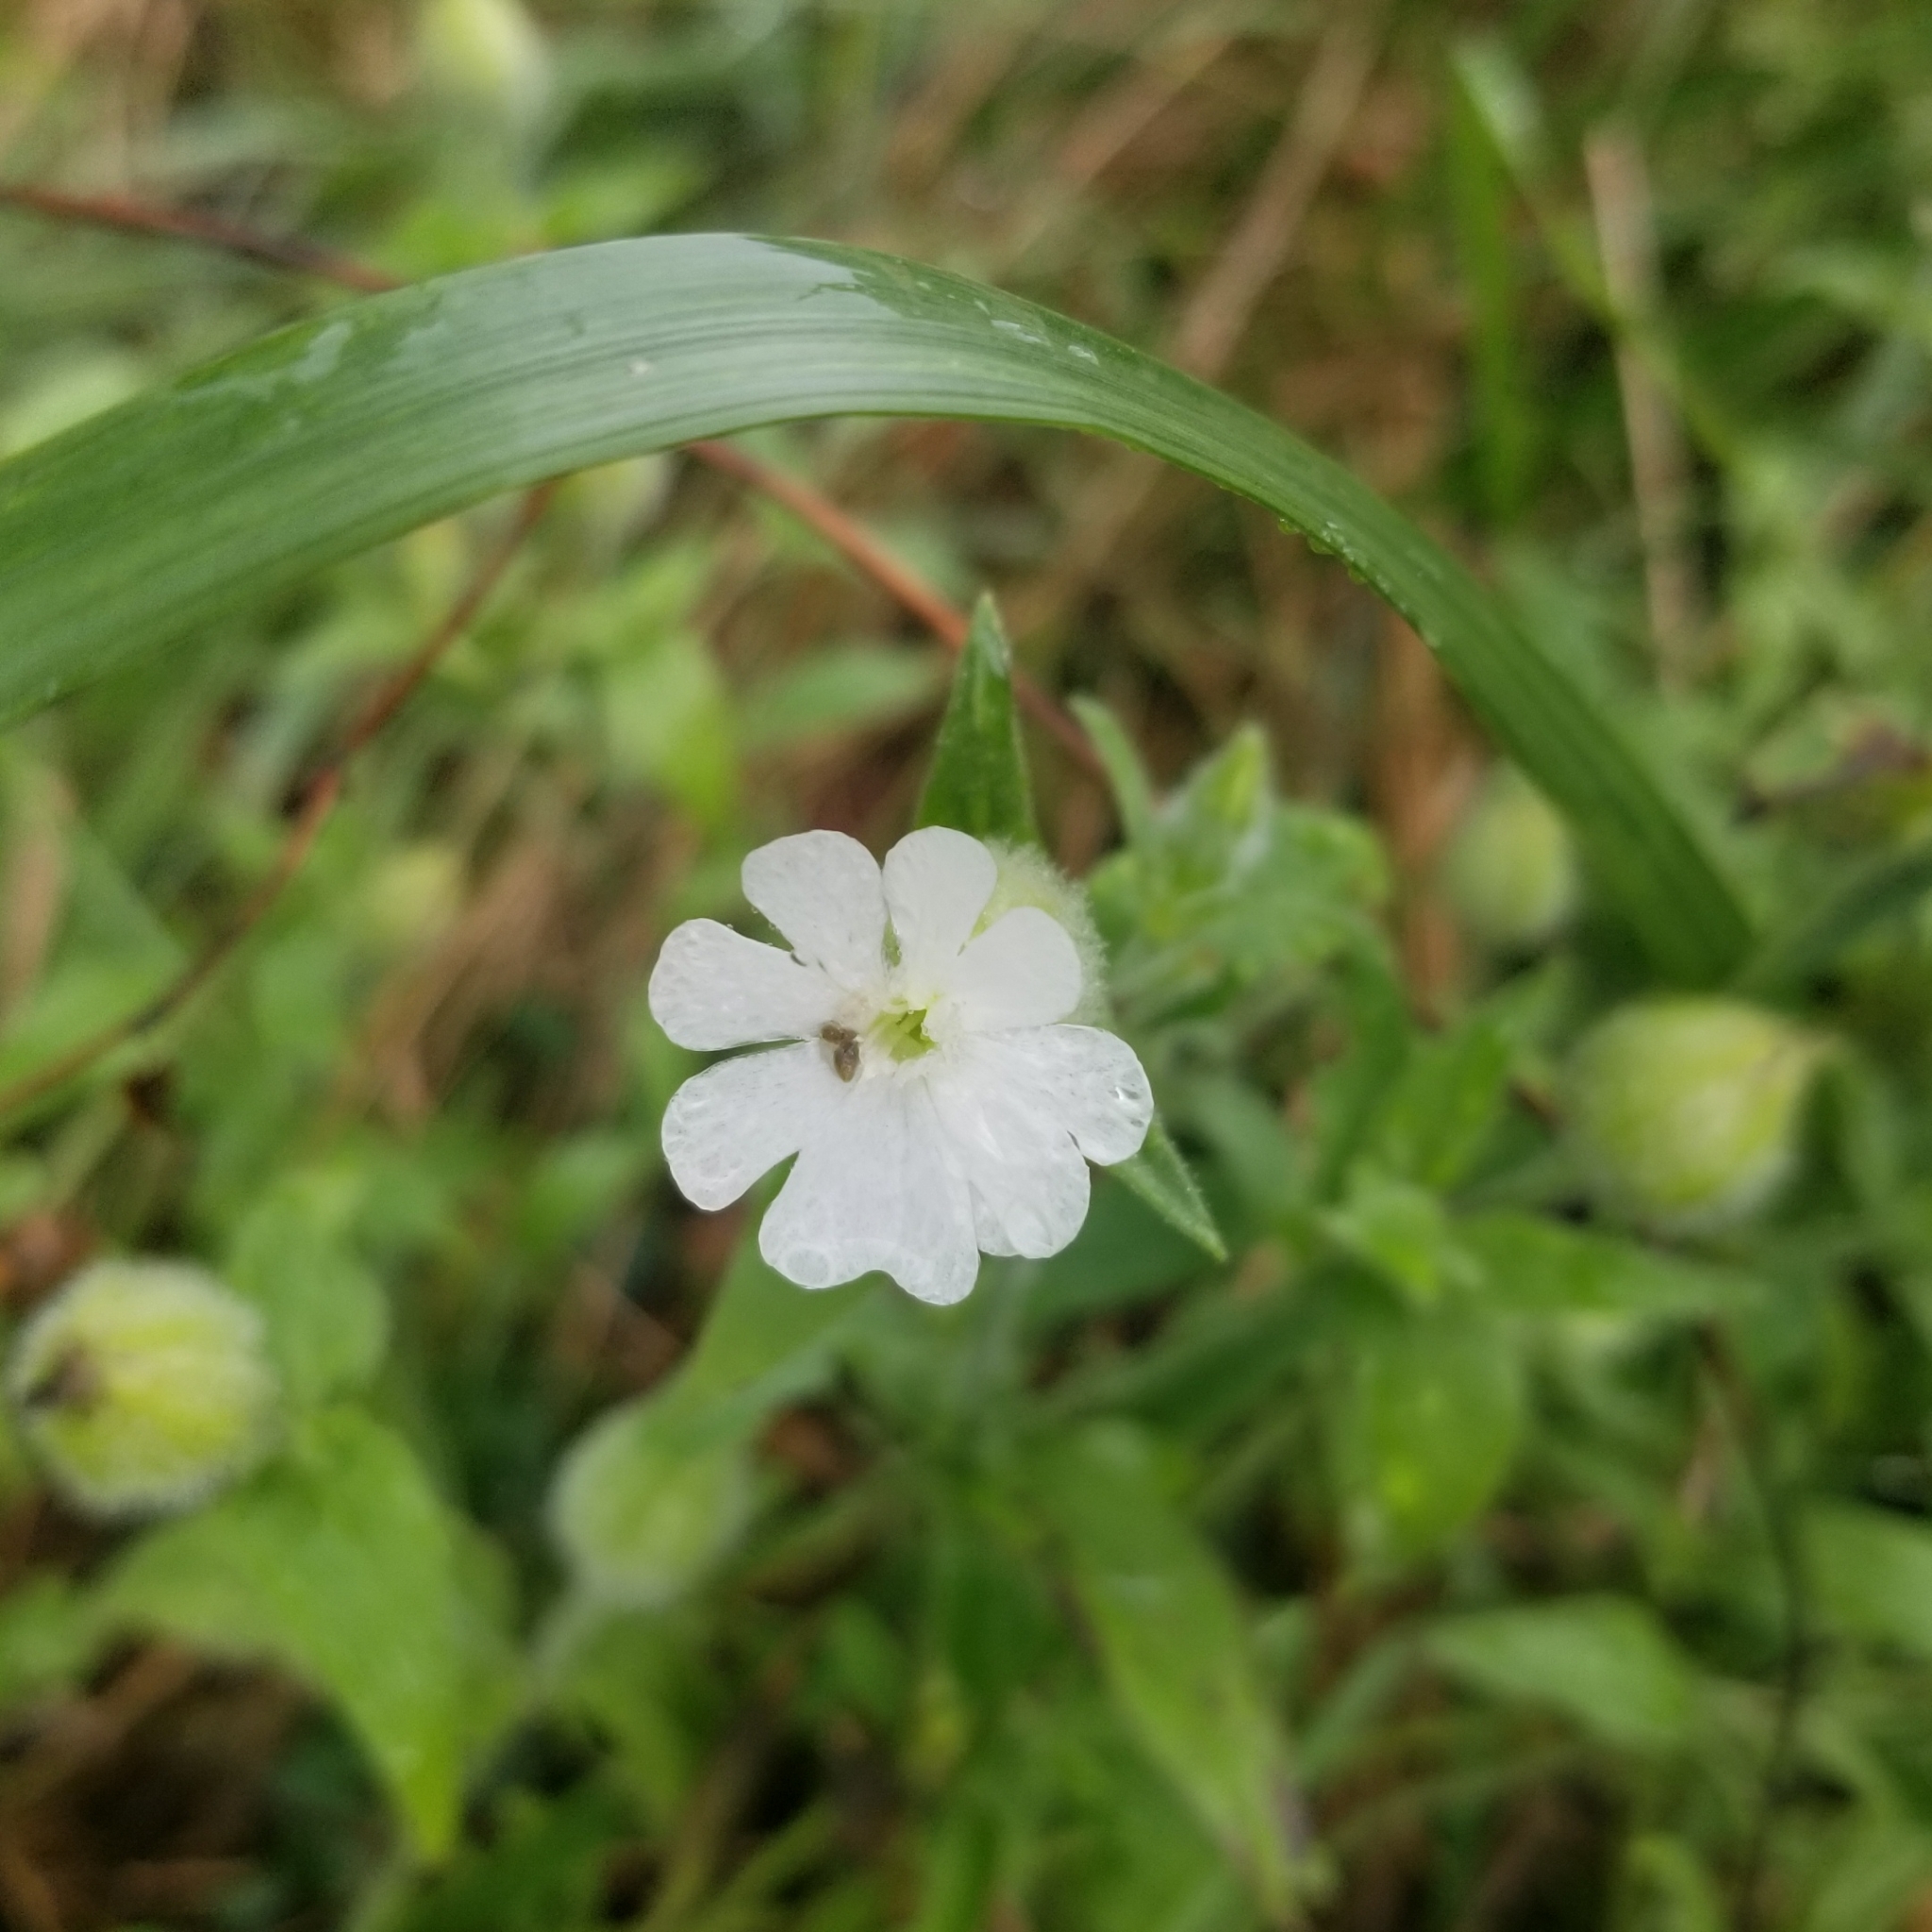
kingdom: Plantae
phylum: Tracheophyta
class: Magnoliopsida
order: Caryophyllales
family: Caryophyllaceae
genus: Silene
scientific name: Silene latifolia
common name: White campion
